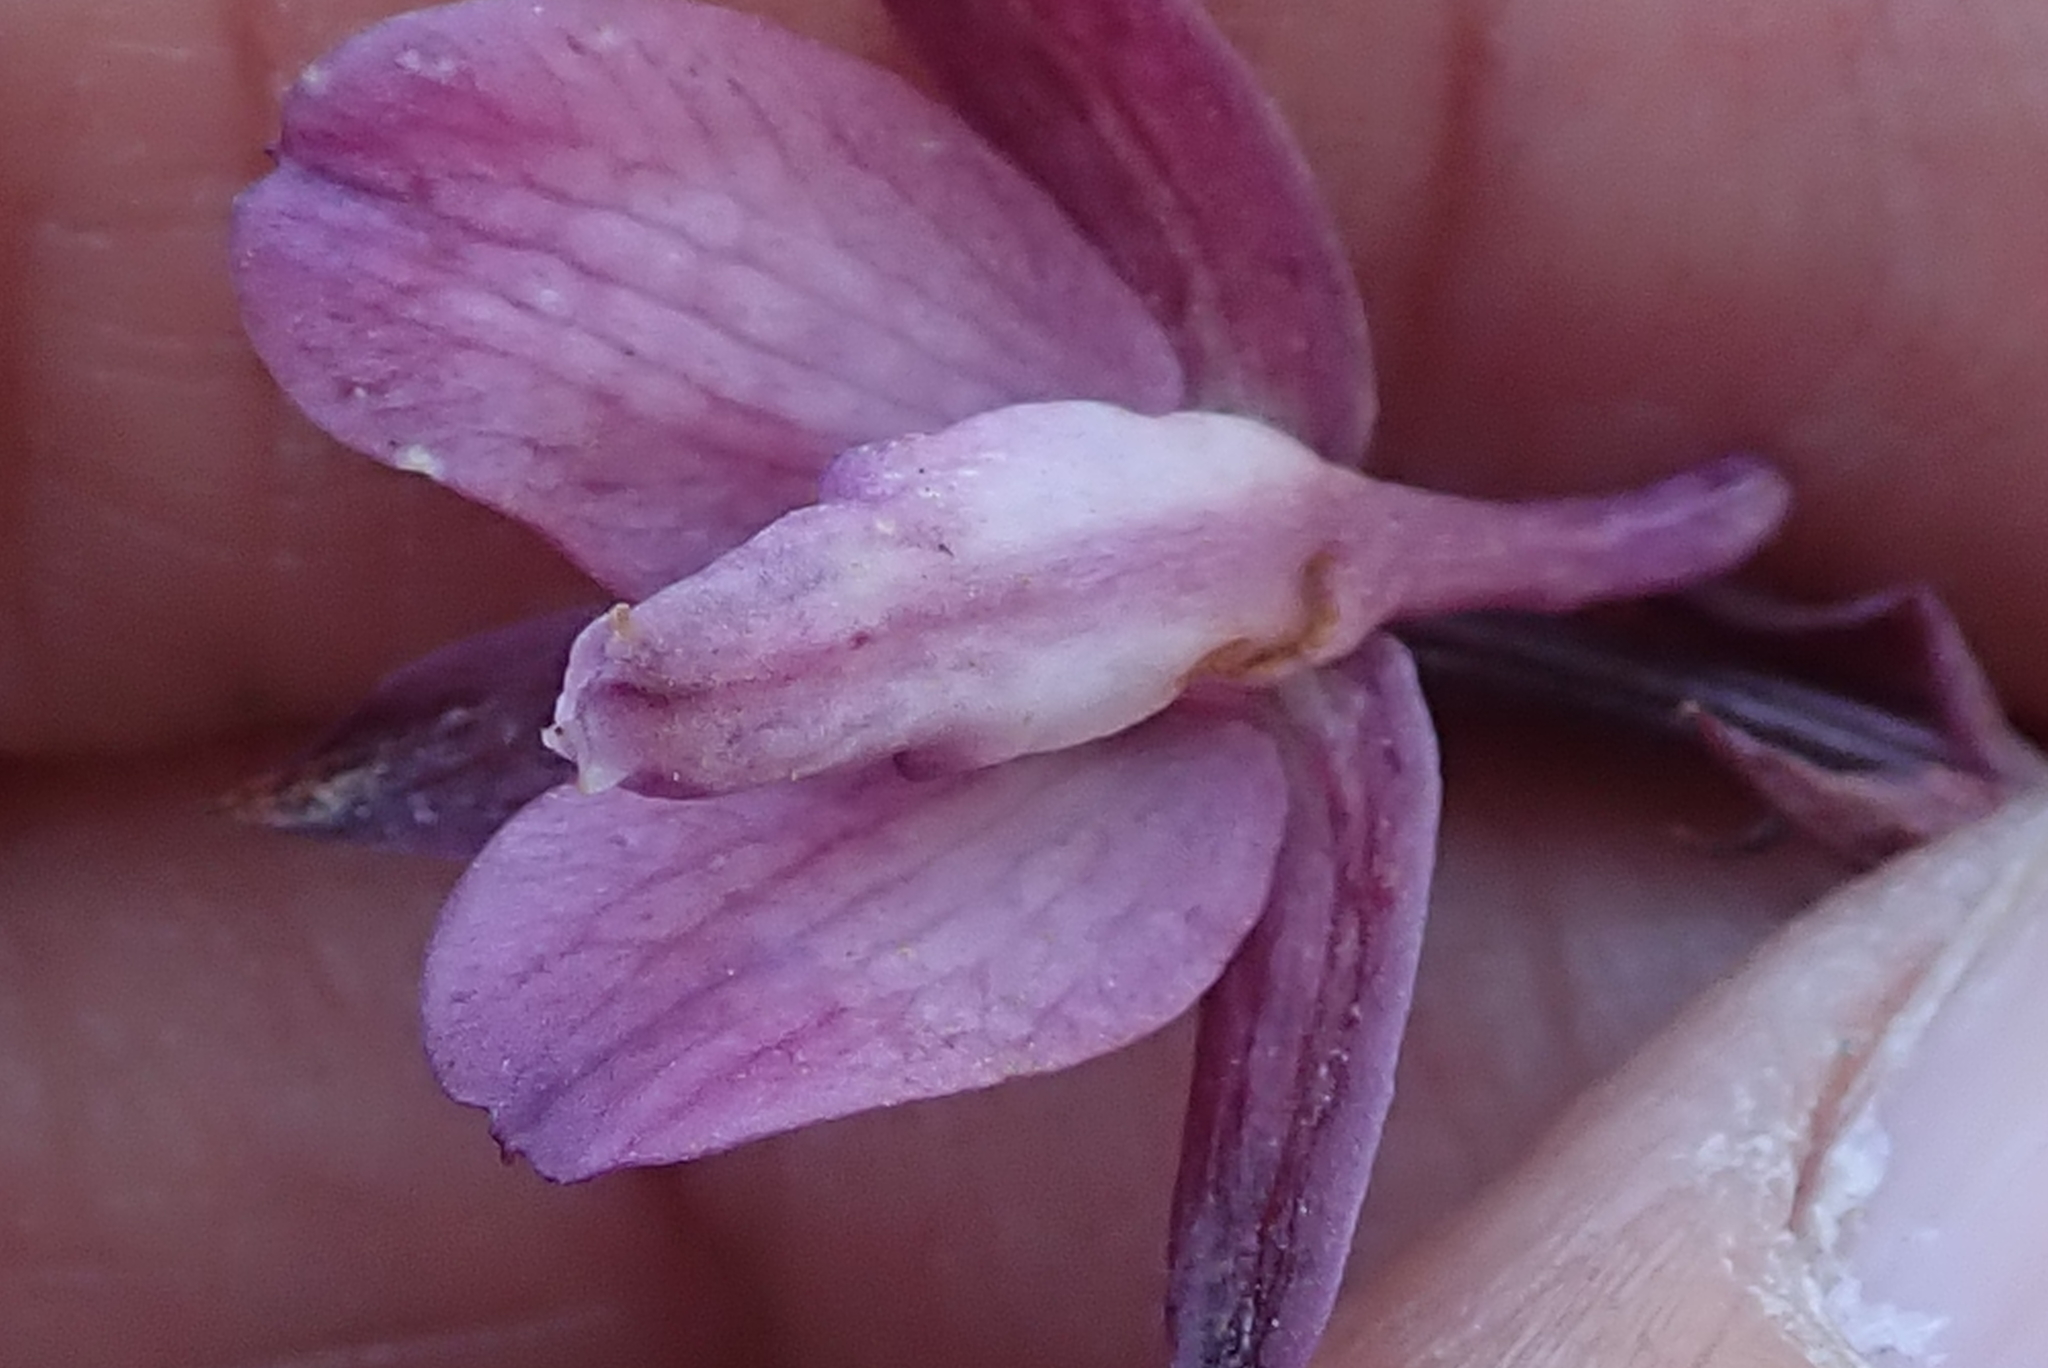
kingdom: Plantae
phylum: Tracheophyta
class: Liliopsida
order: Asparagales
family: Orchidaceae
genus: Eulophia
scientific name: Eulophia hians
